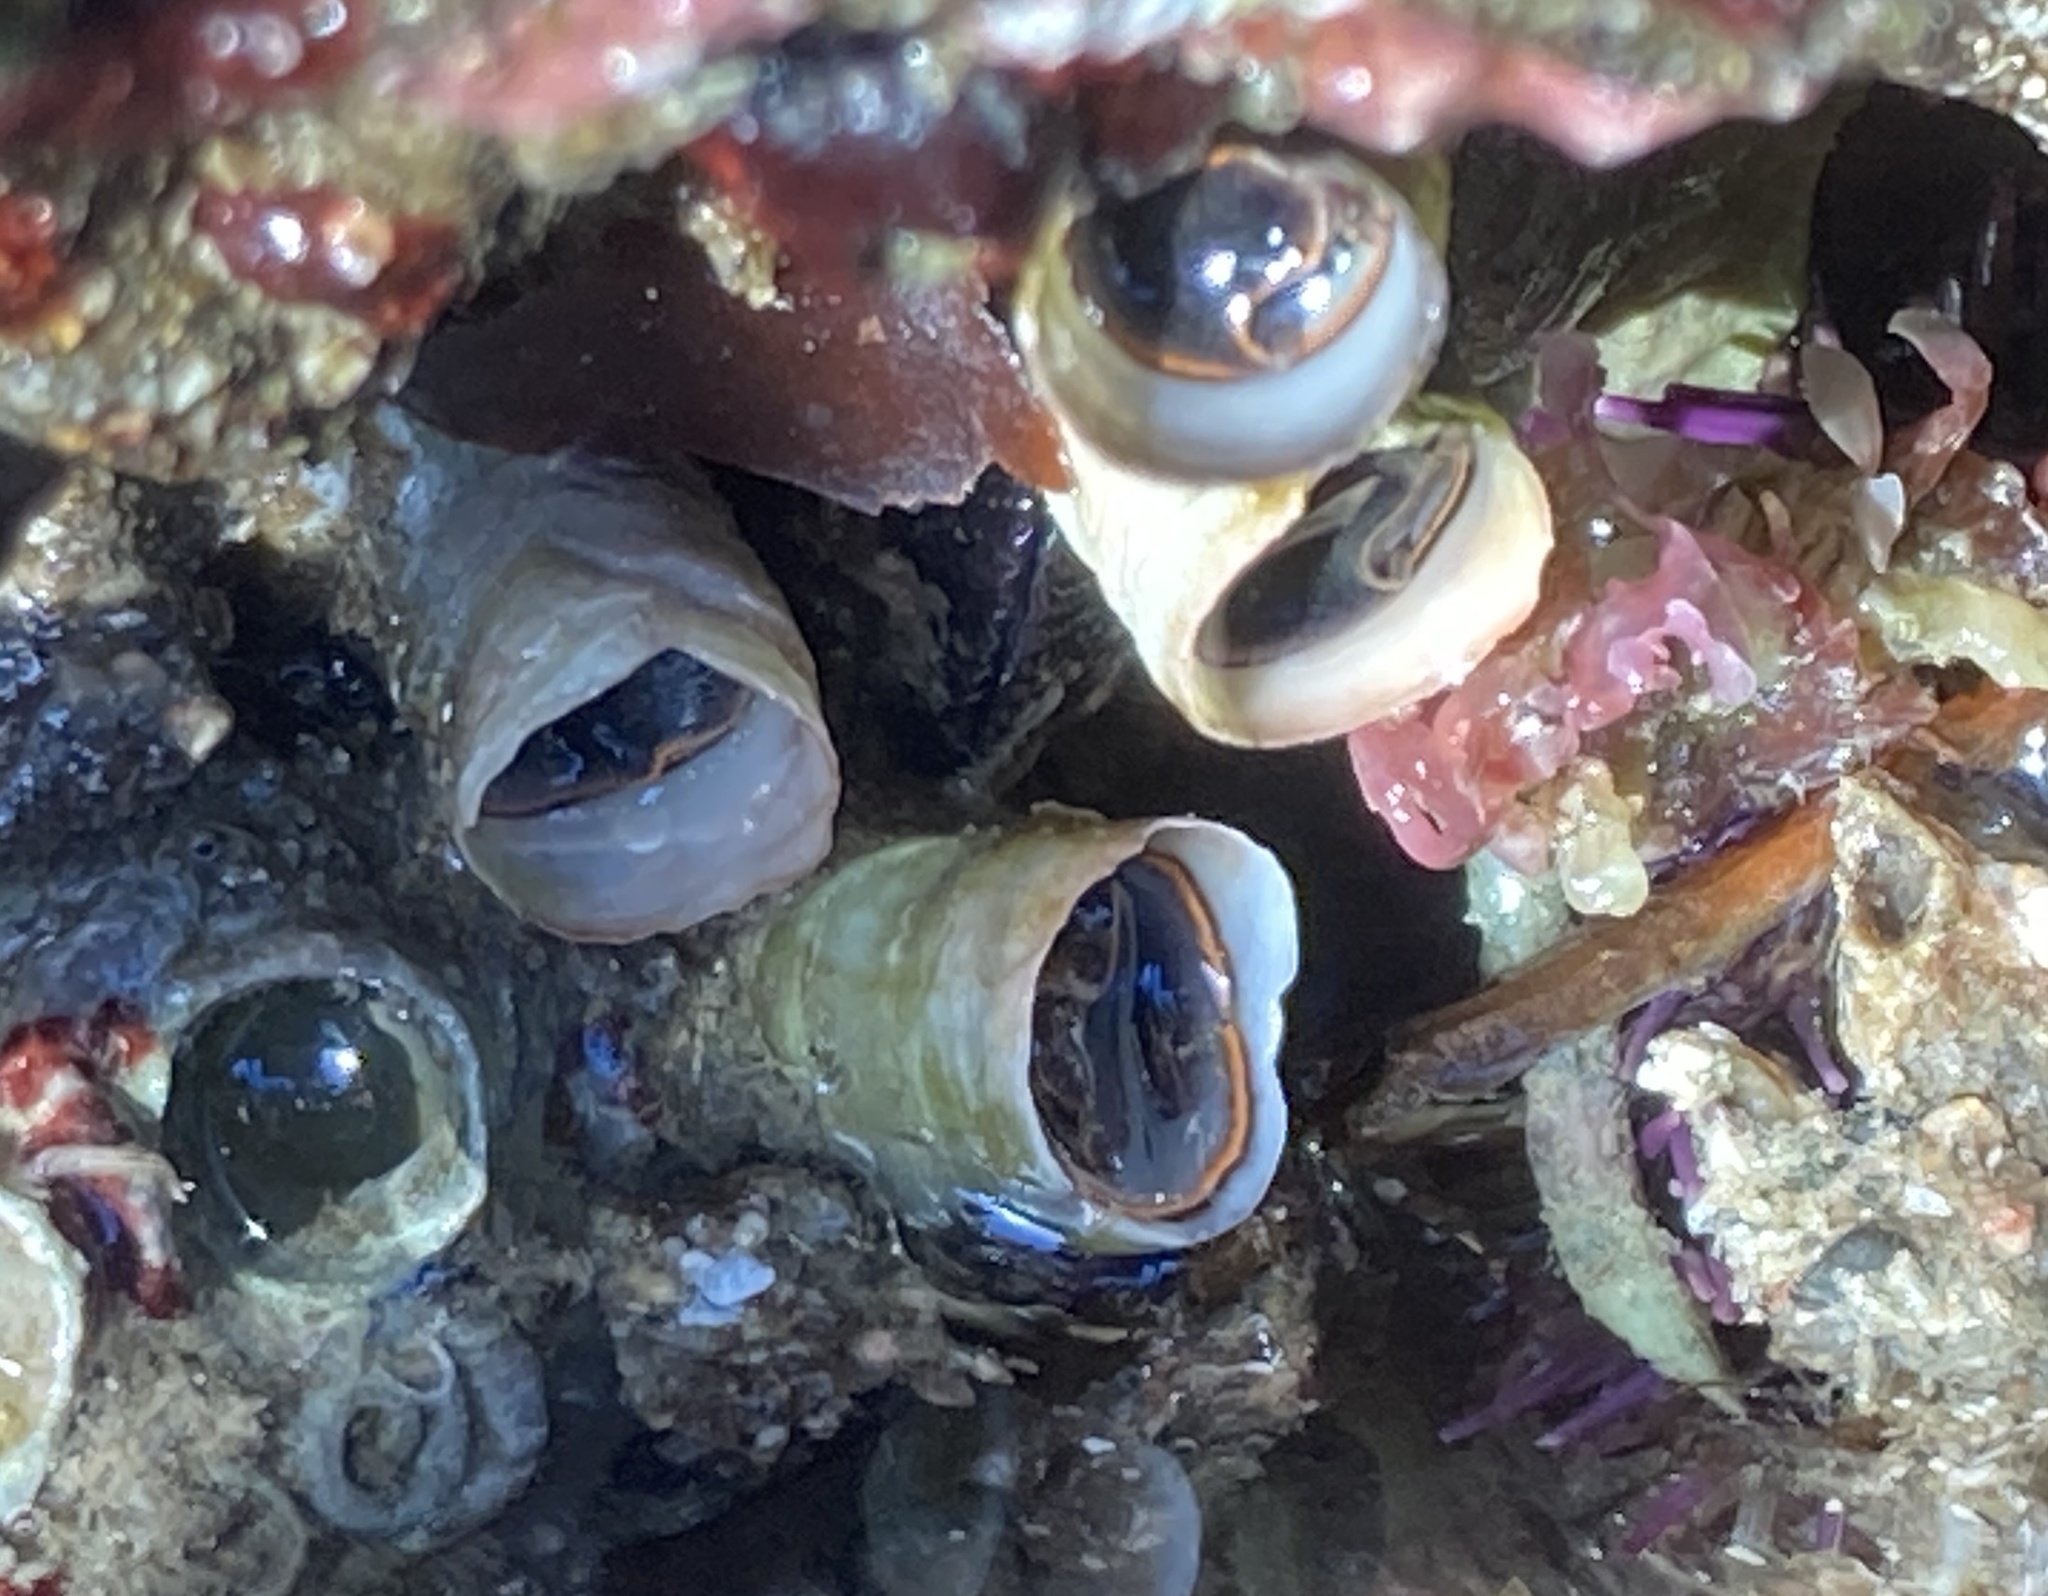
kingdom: Animalia
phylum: Mollusca
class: Gastropoda
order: Littorinimorpha
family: Vermetidae
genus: Thylacodes
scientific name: Thylacodes squamigerus
